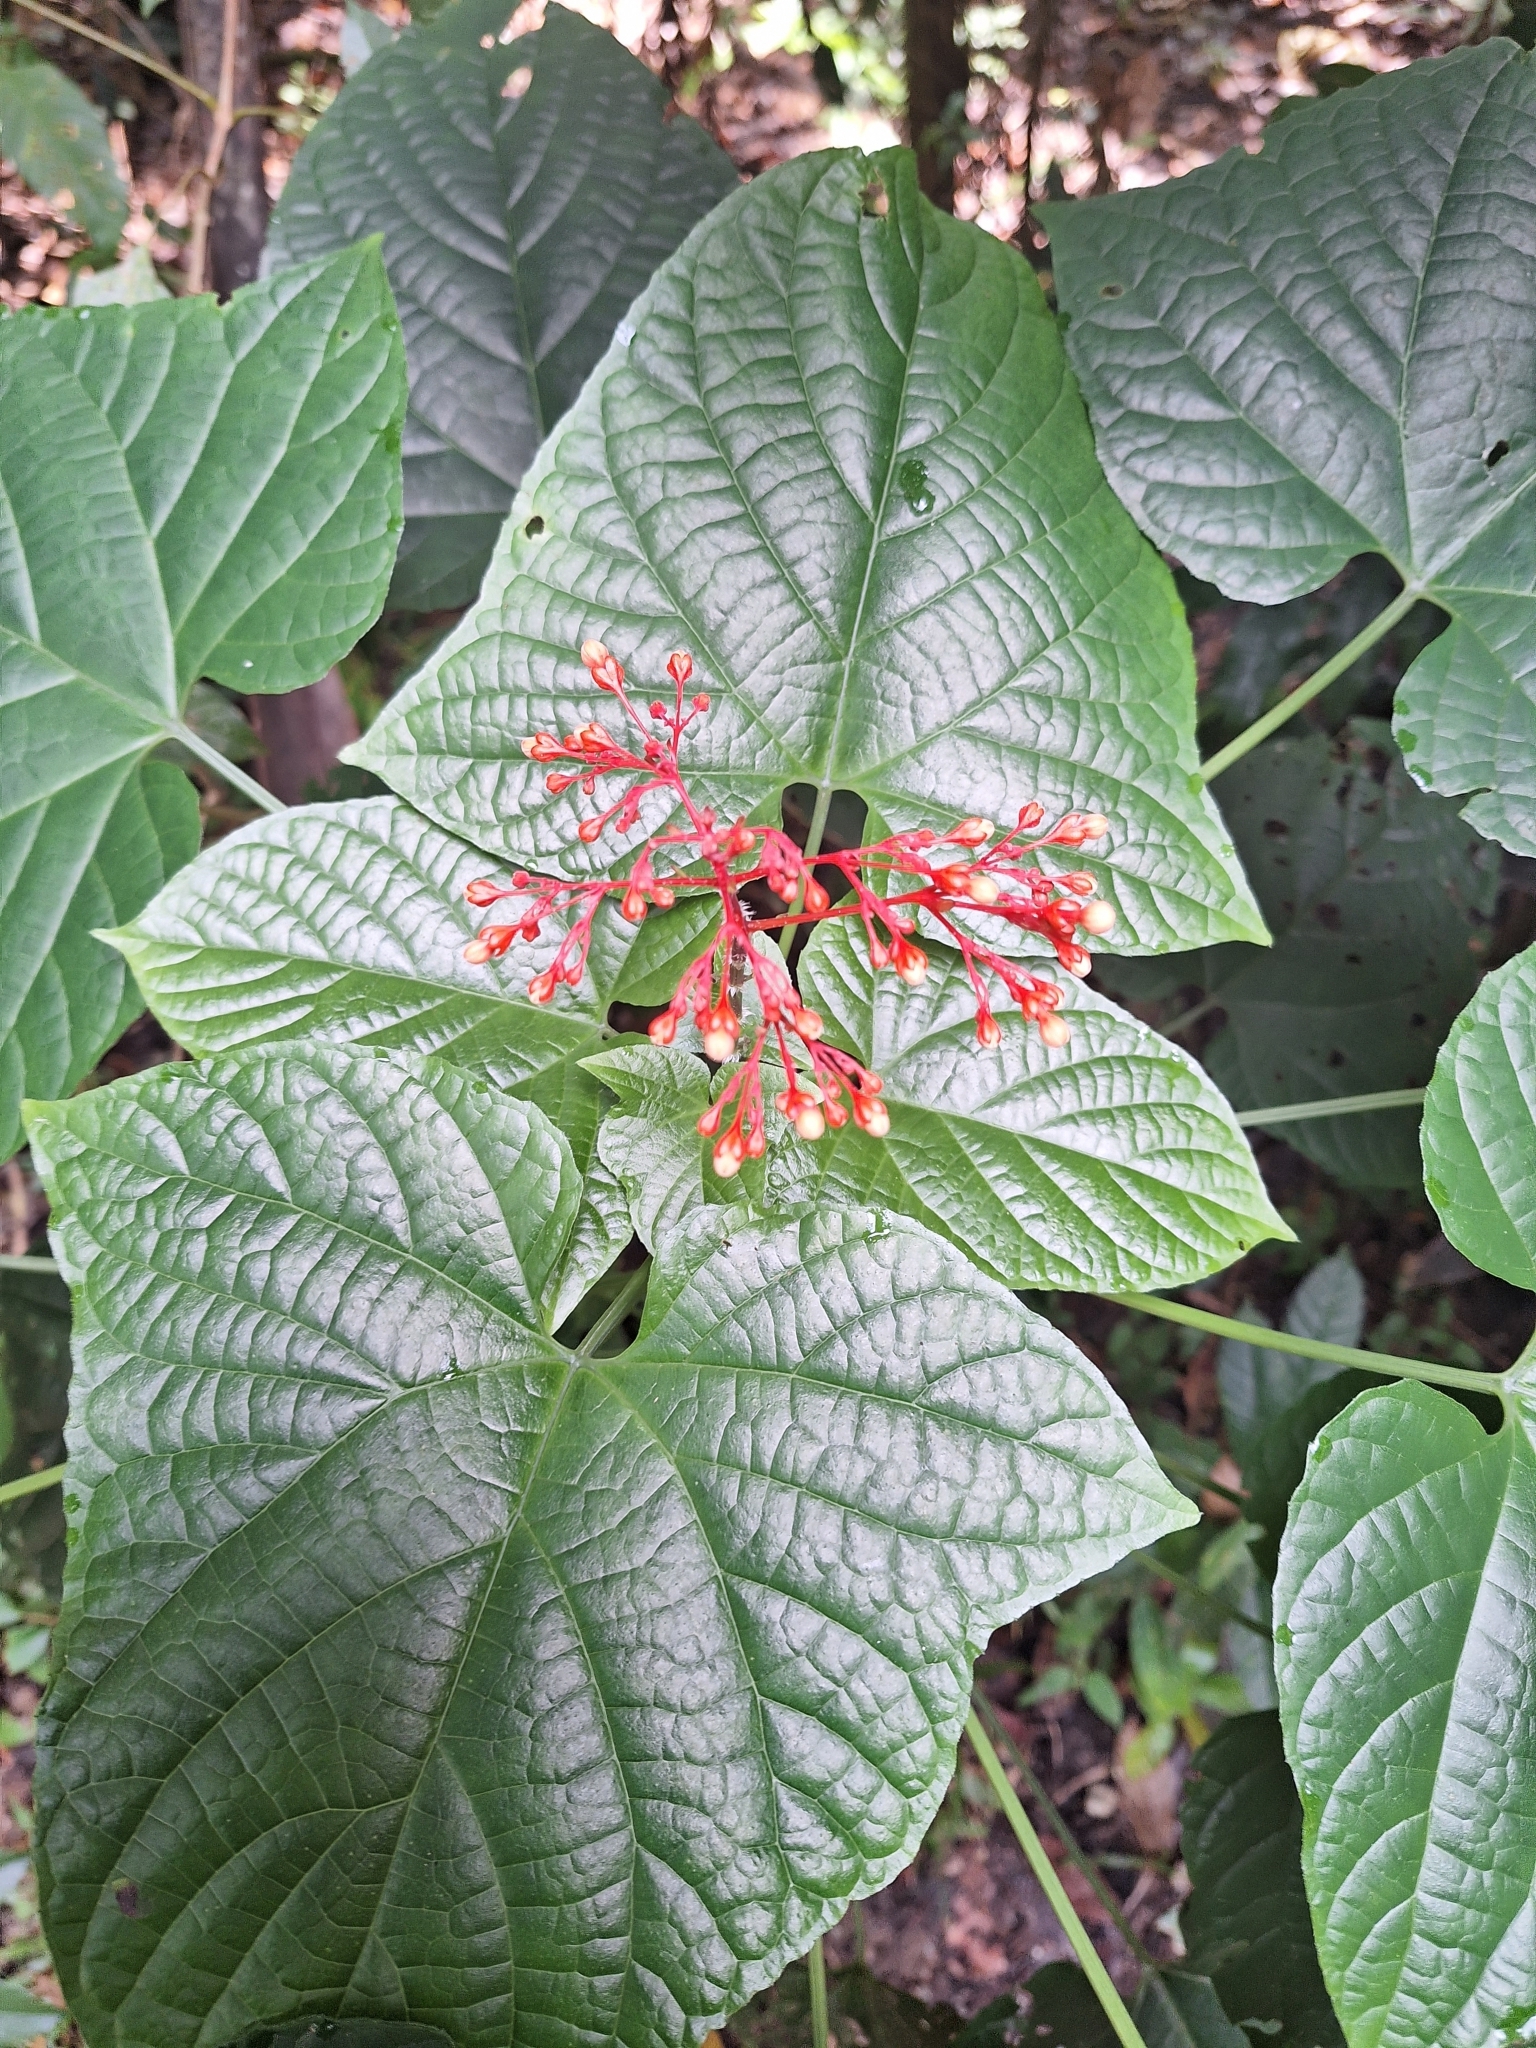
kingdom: Plantae
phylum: Tracheophyta
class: Magnoliopsida
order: Lamiales
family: Lamiaceae
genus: Clerodendrum
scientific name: Clerodendrum paniculatum
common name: Pagoda-flower
